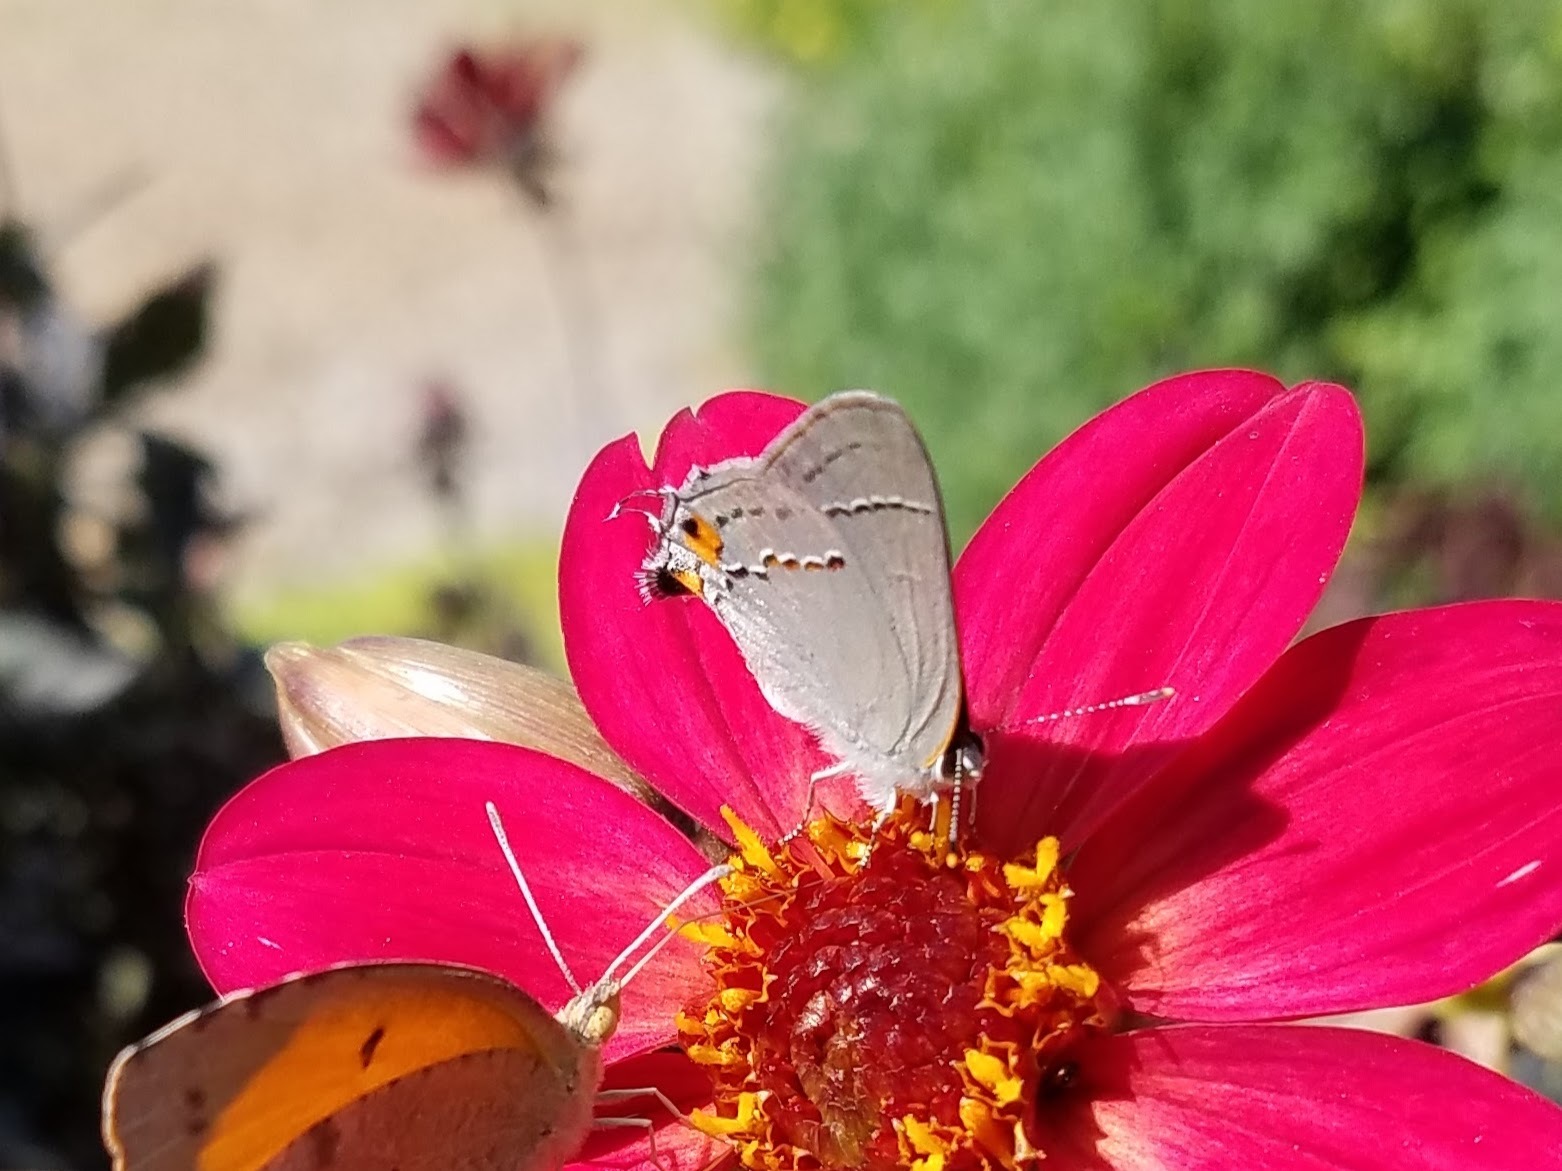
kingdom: Animalia
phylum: Arthropoda
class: Insecta
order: Lepidoptera
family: Lycaenidae
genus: Strymon
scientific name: Strymon melinus
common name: Gray hairstreak
